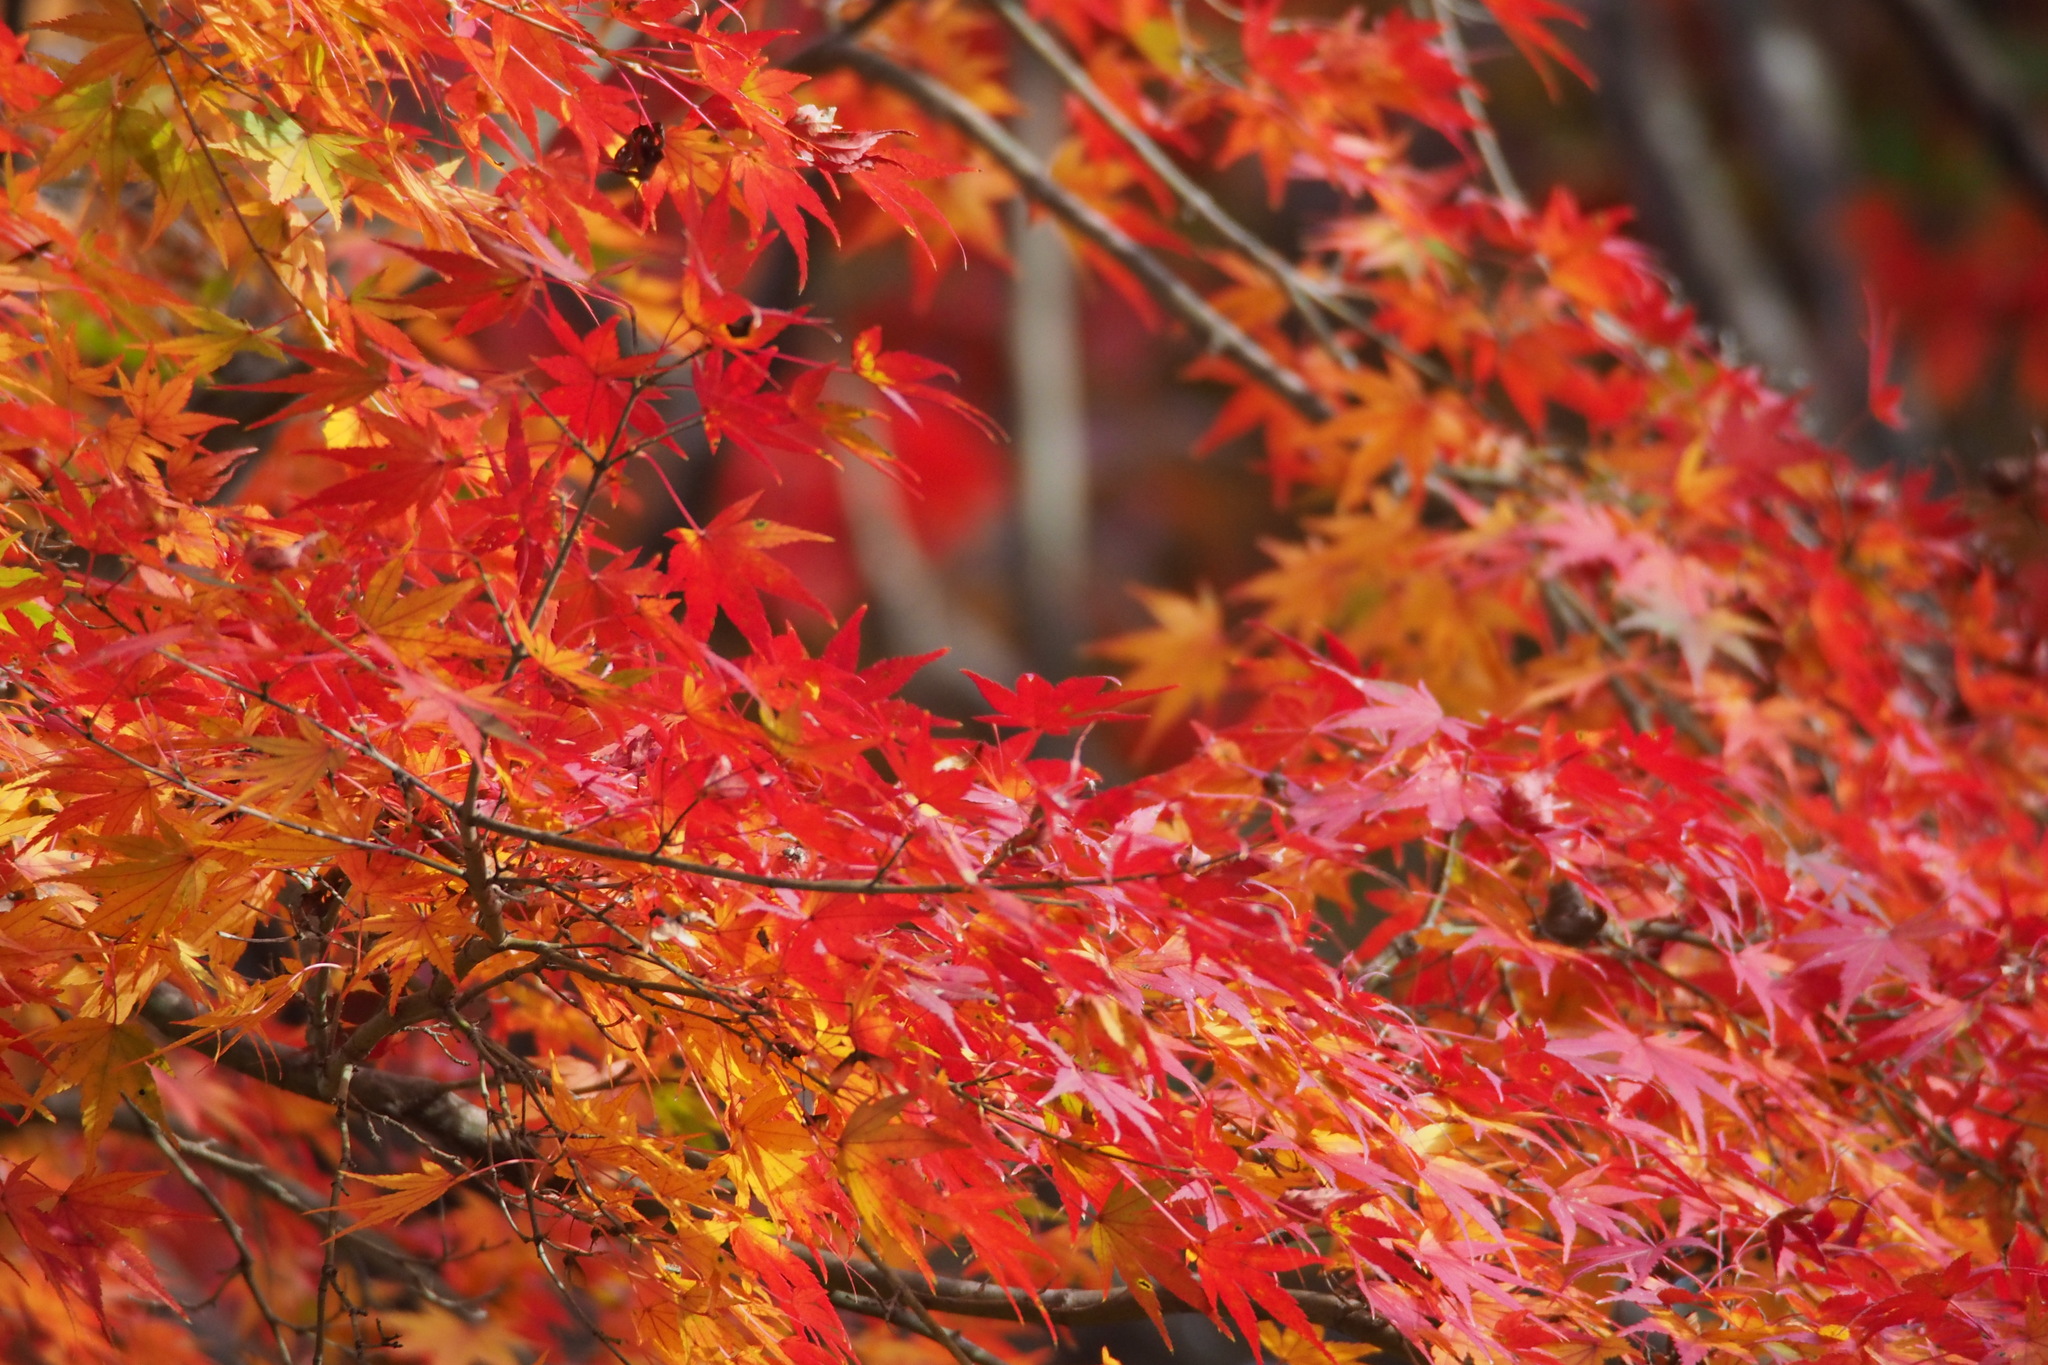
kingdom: Plantae
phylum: Tracheophyta
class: Magnoliopsida
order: Sapindales
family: Sapindaceae
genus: Acer
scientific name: Acer palmatum
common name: Japanese maple
